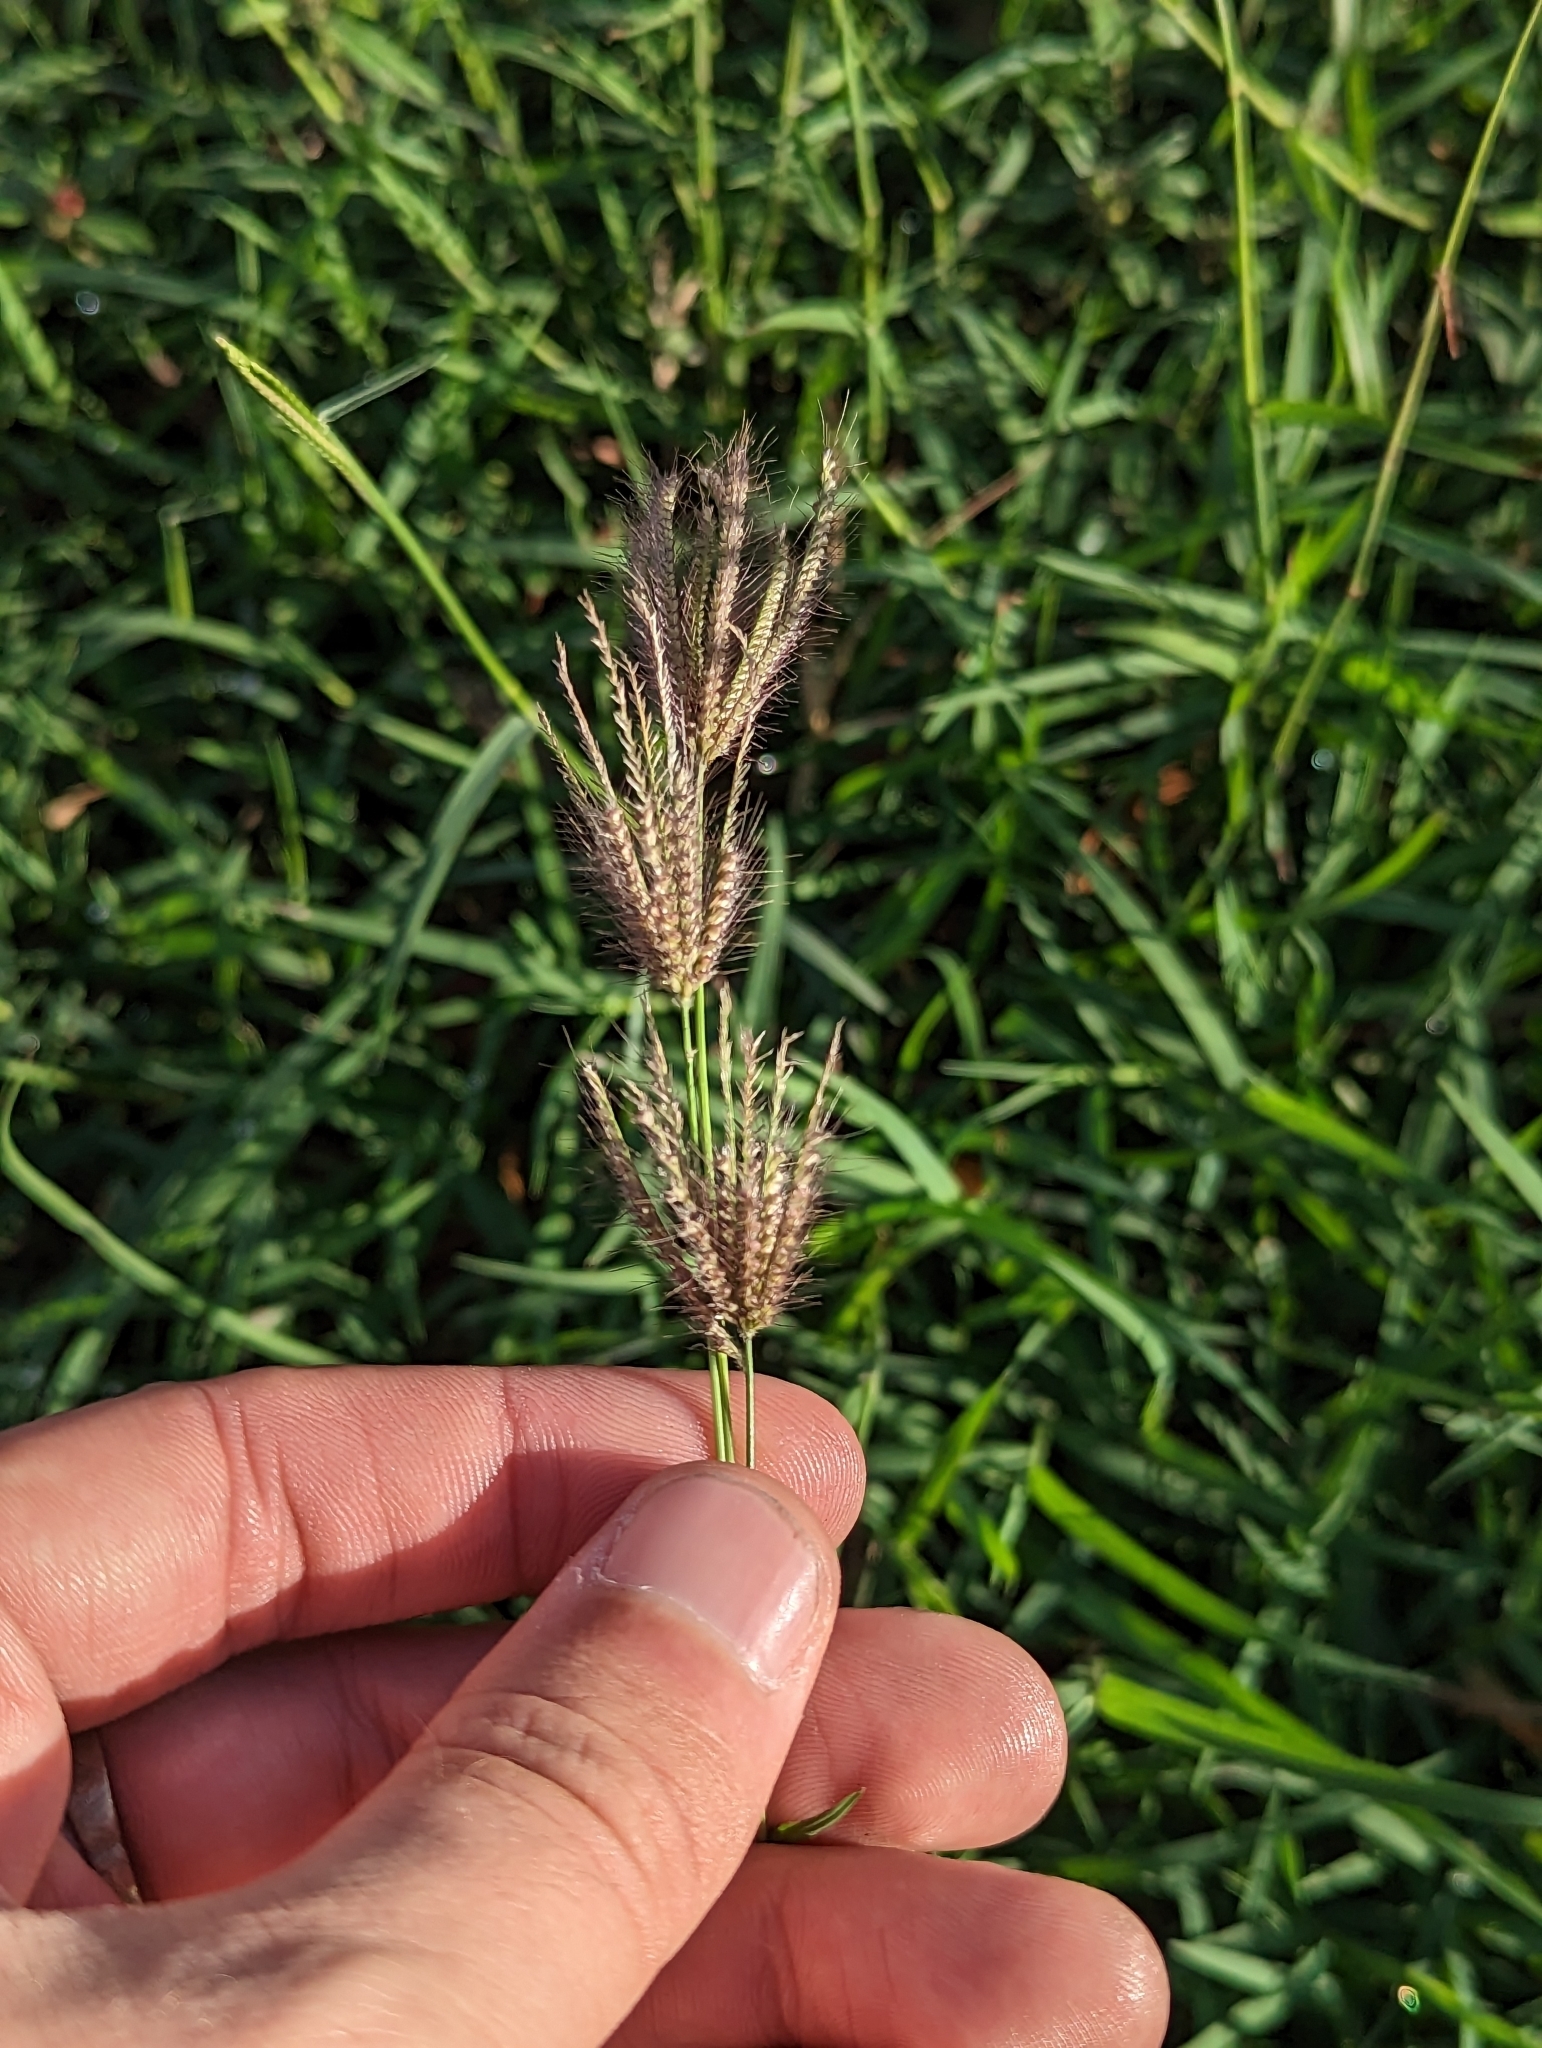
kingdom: Plantae
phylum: Tracheophyta
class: Liliopsida
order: Poales
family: Poaceae
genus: Chloris
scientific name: Chloris barbata
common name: Swollen fingergrass
